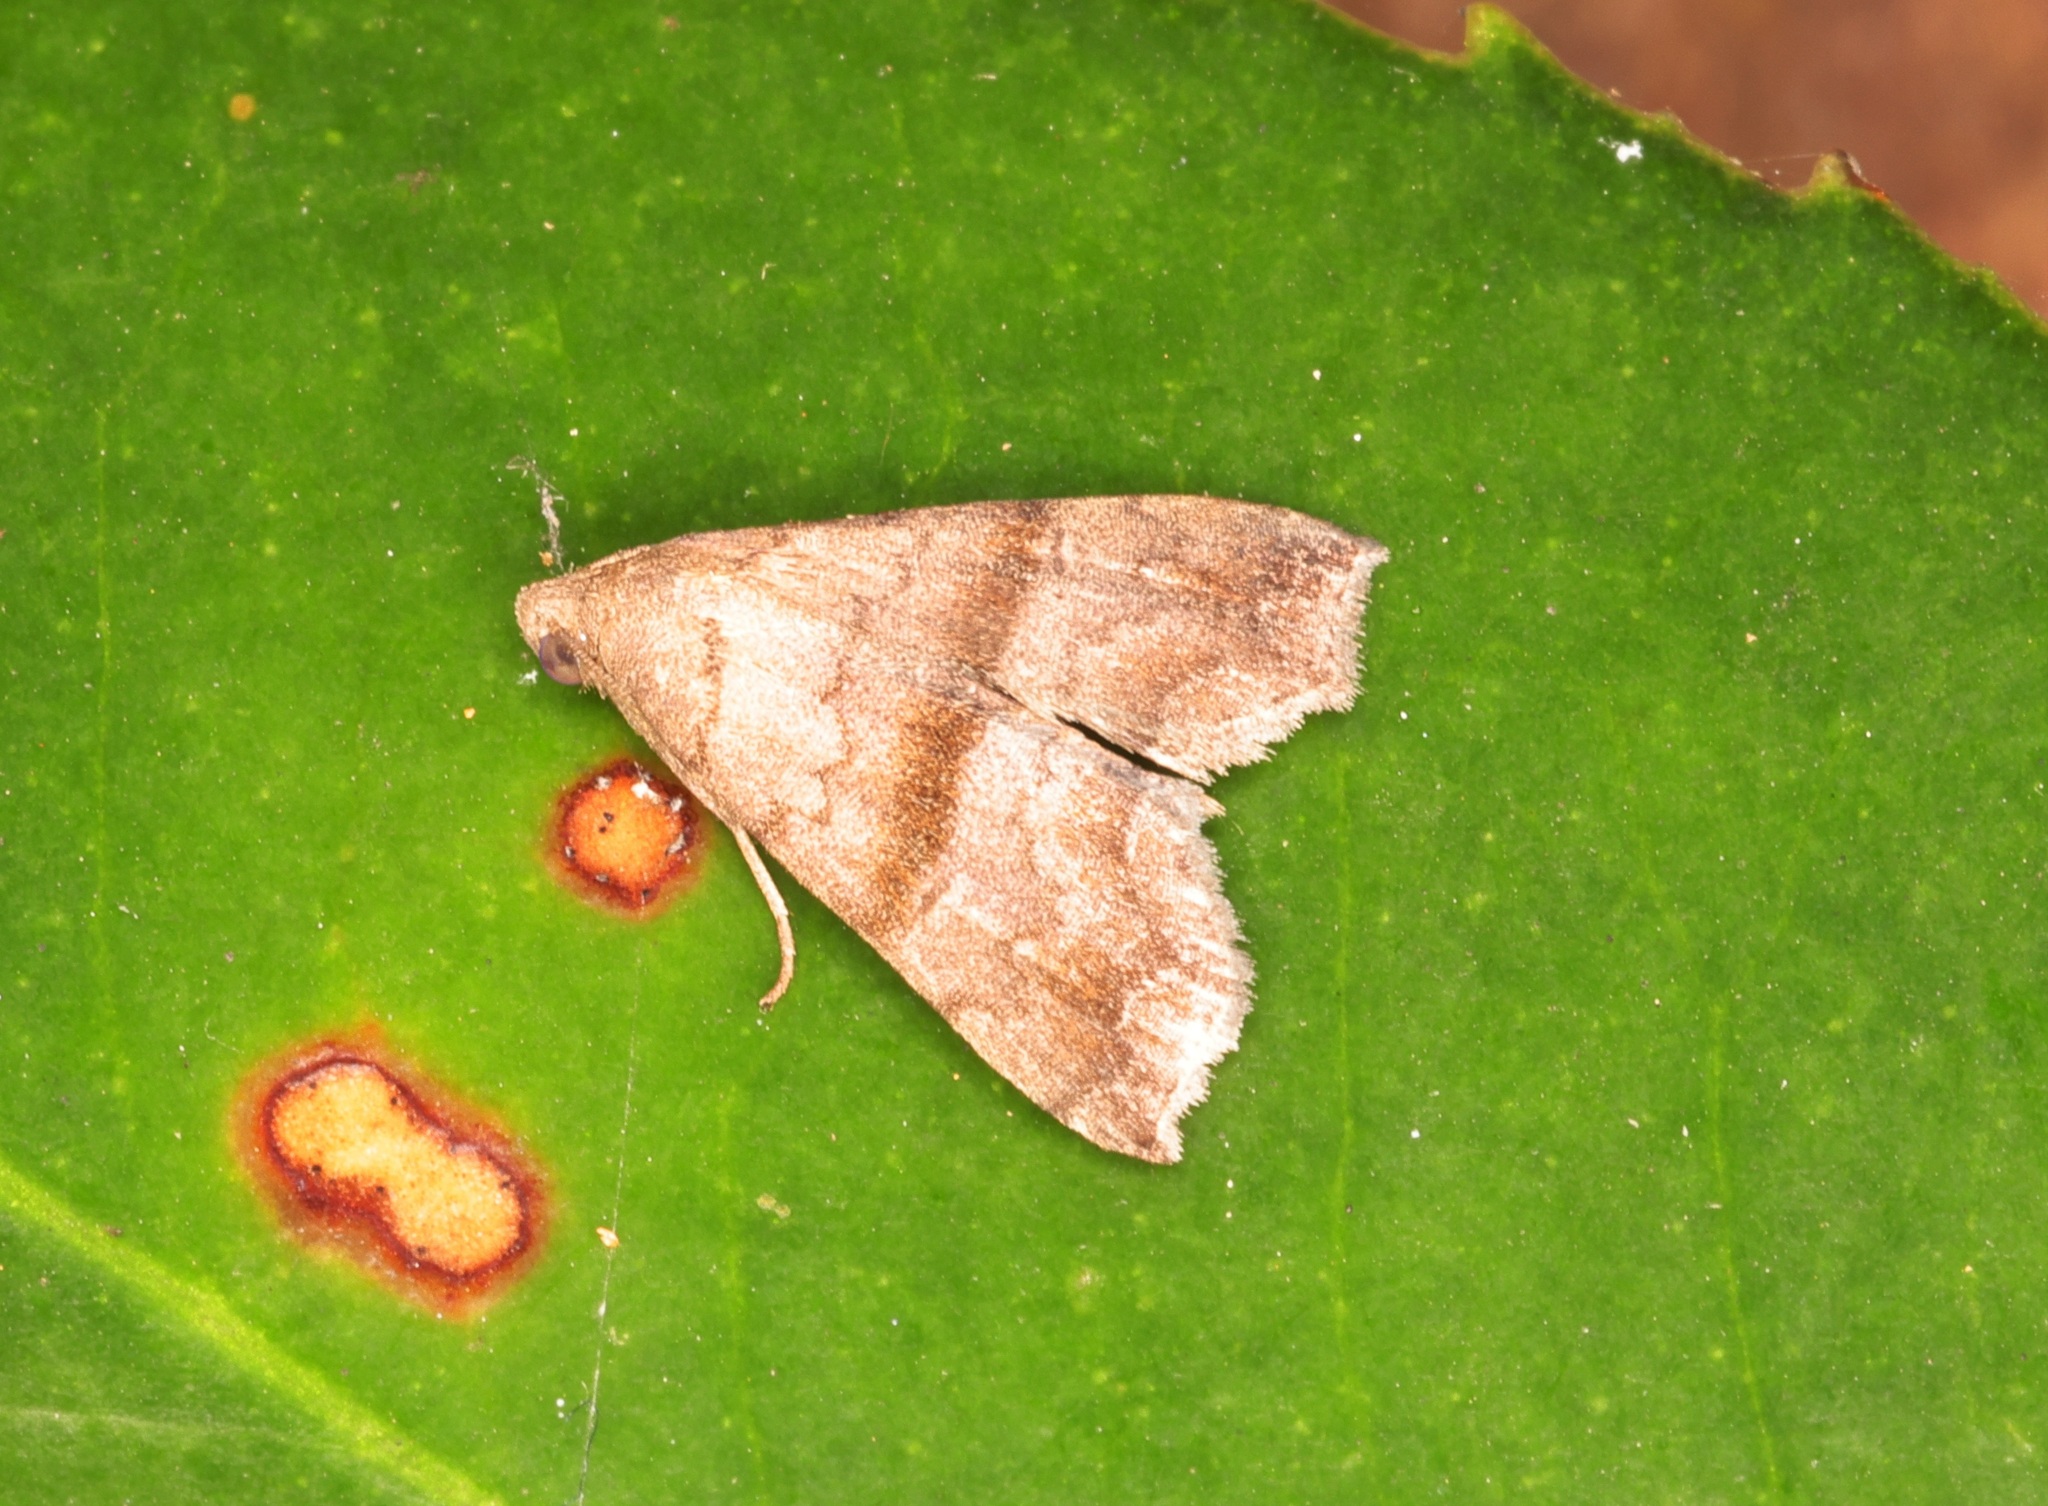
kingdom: Animalia
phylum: Arthropoda
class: Insecta
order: Lepidoptera
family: Erebidae
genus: Polypogon
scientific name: Polypogon Hipoepa fractalis
